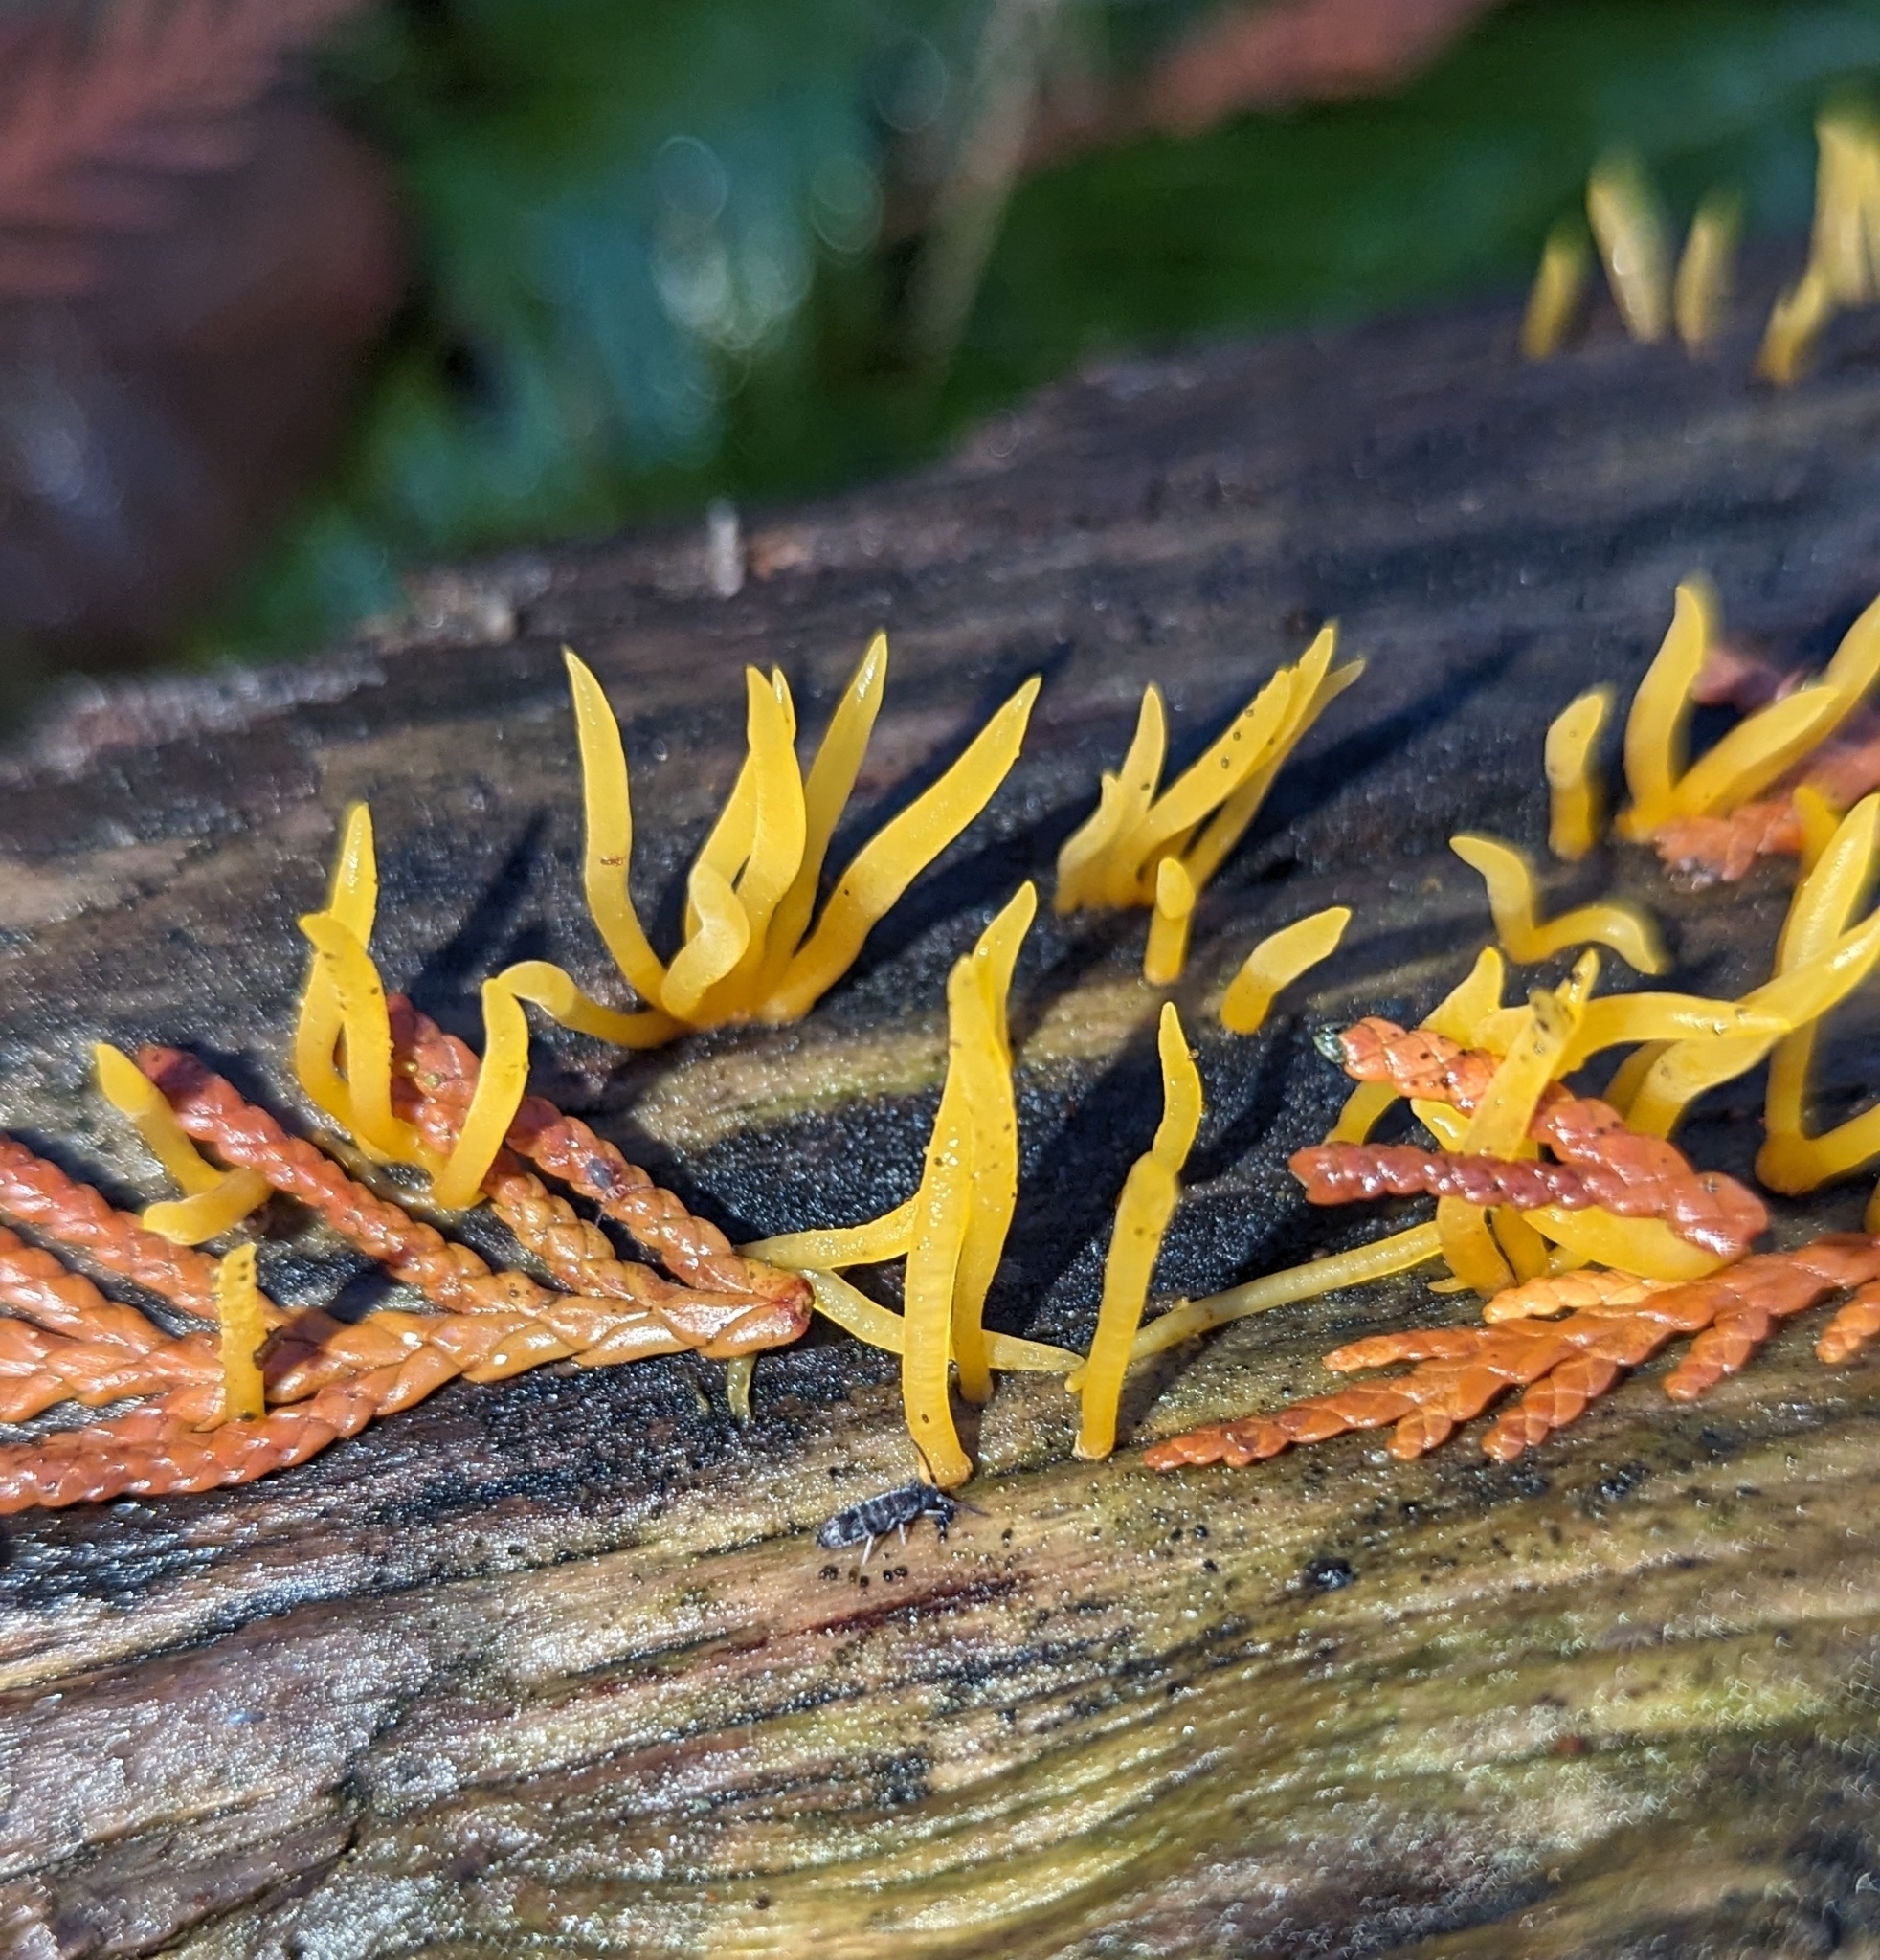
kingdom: Fungi
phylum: Basidiomycota
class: Dacrymycetes
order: Dacrymycetales
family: Dacrymycetaceae
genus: Calocera
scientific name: Calocera cornea
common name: Small stagshorn
